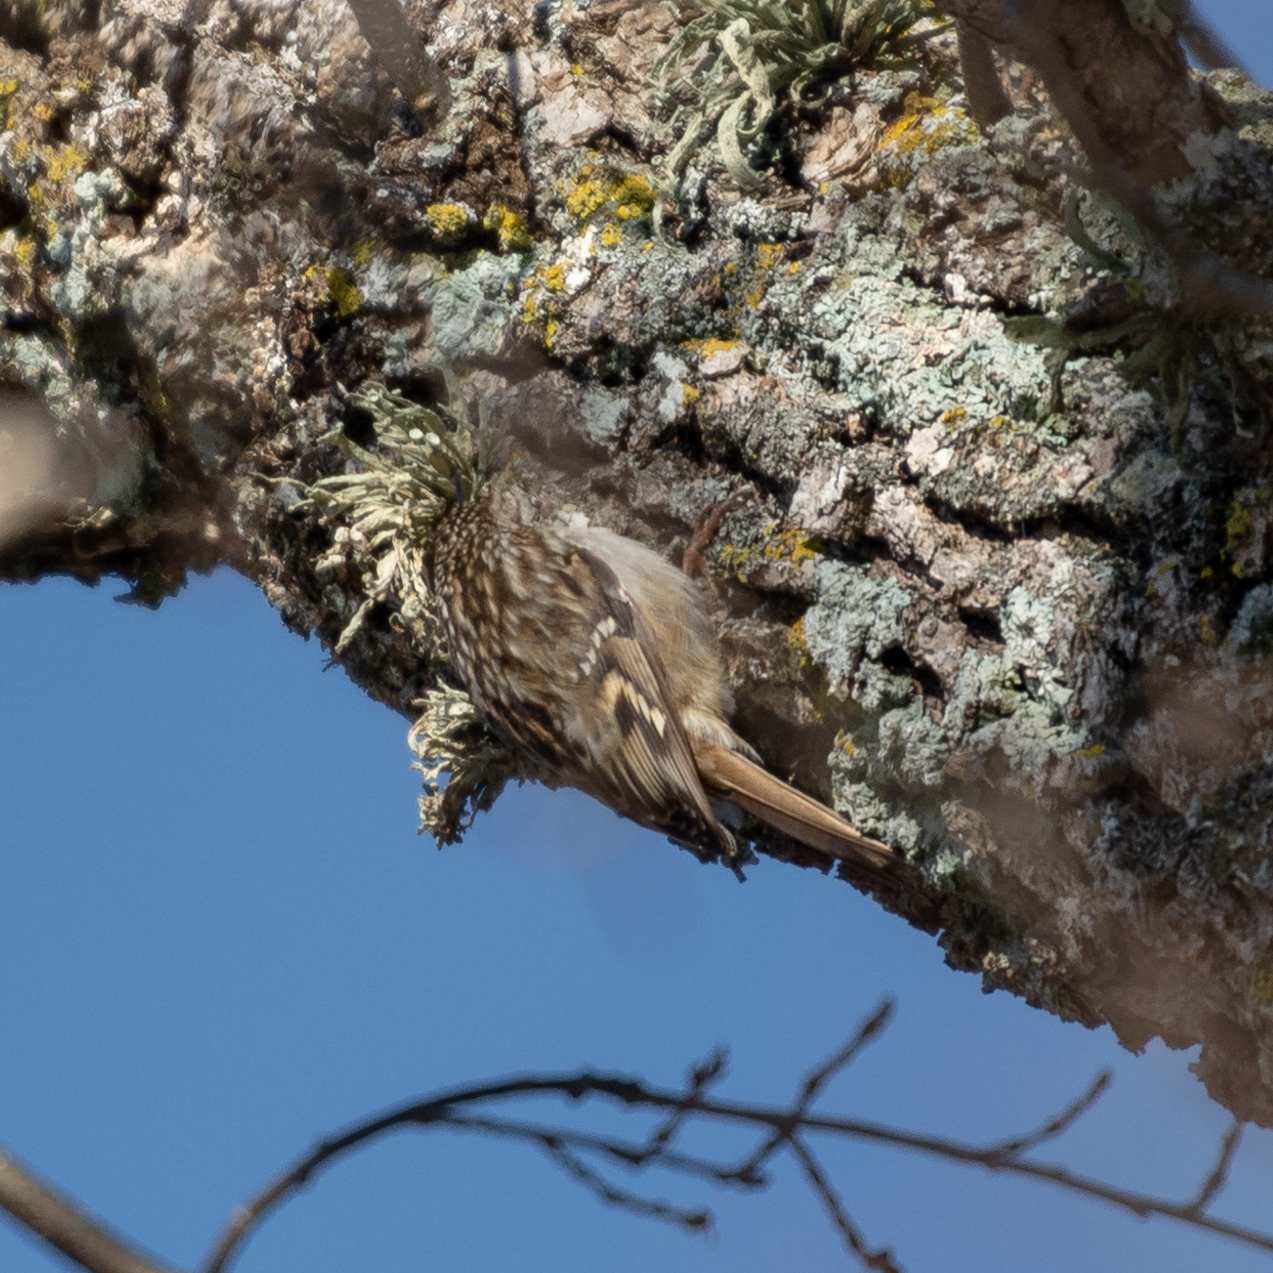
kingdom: Animalia
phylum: Chordata
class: Aves
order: Passeriformes
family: Certhiidae
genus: Certhia
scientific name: Certhia brachydactyla
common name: Short-toed treecreeper
